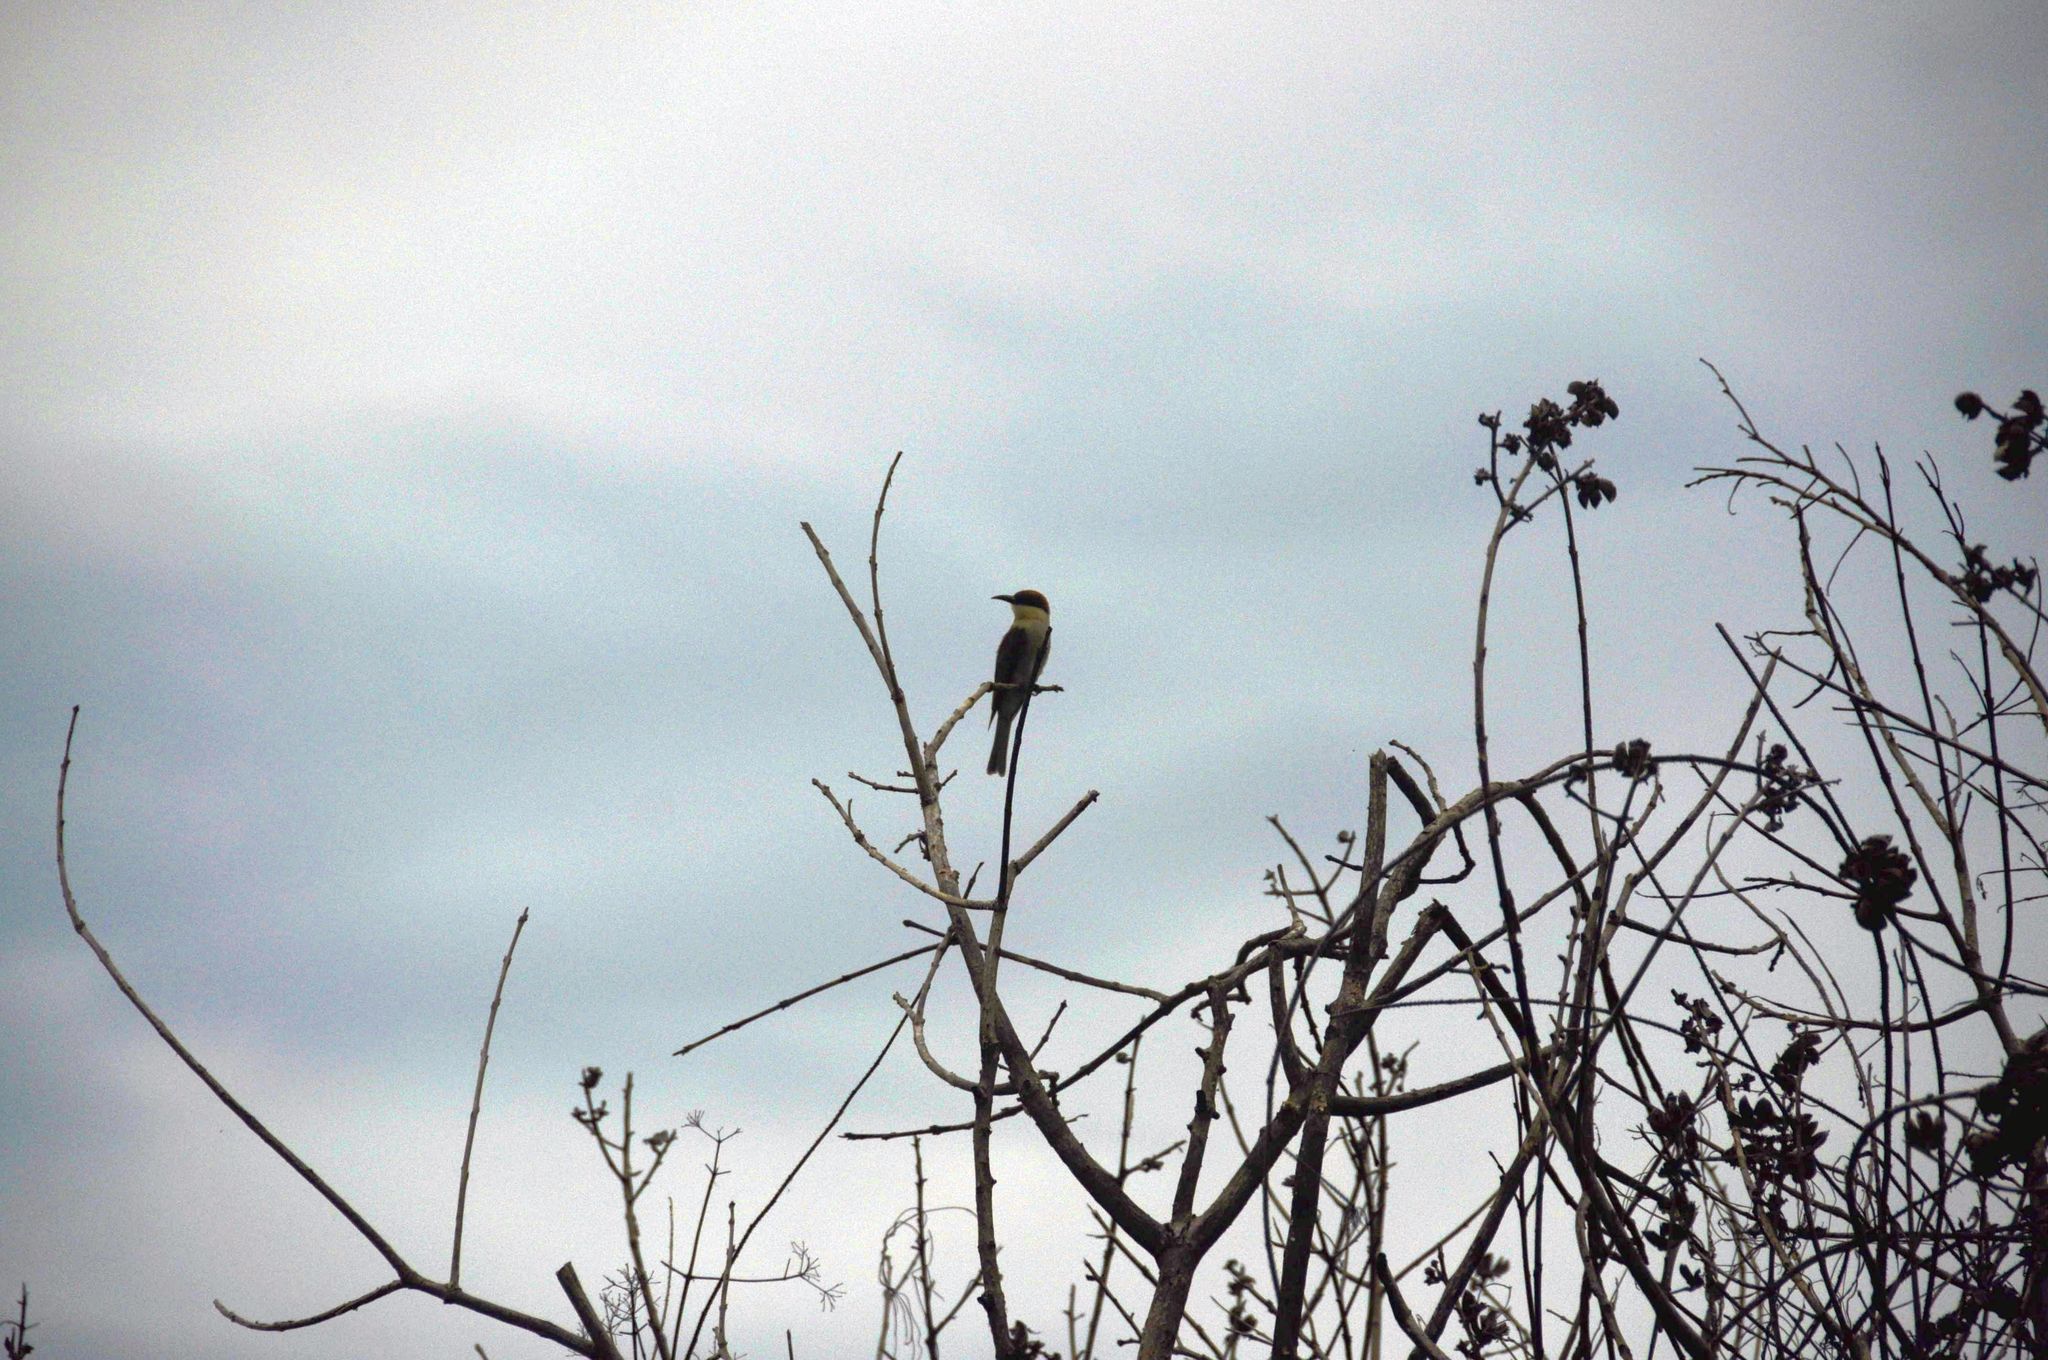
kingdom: Animalia
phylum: Chordata
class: Aves
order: Coraciiformes
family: Meropidae
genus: Merops
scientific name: Merops leschenaulti
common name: Chestnut-headed bee-eater
